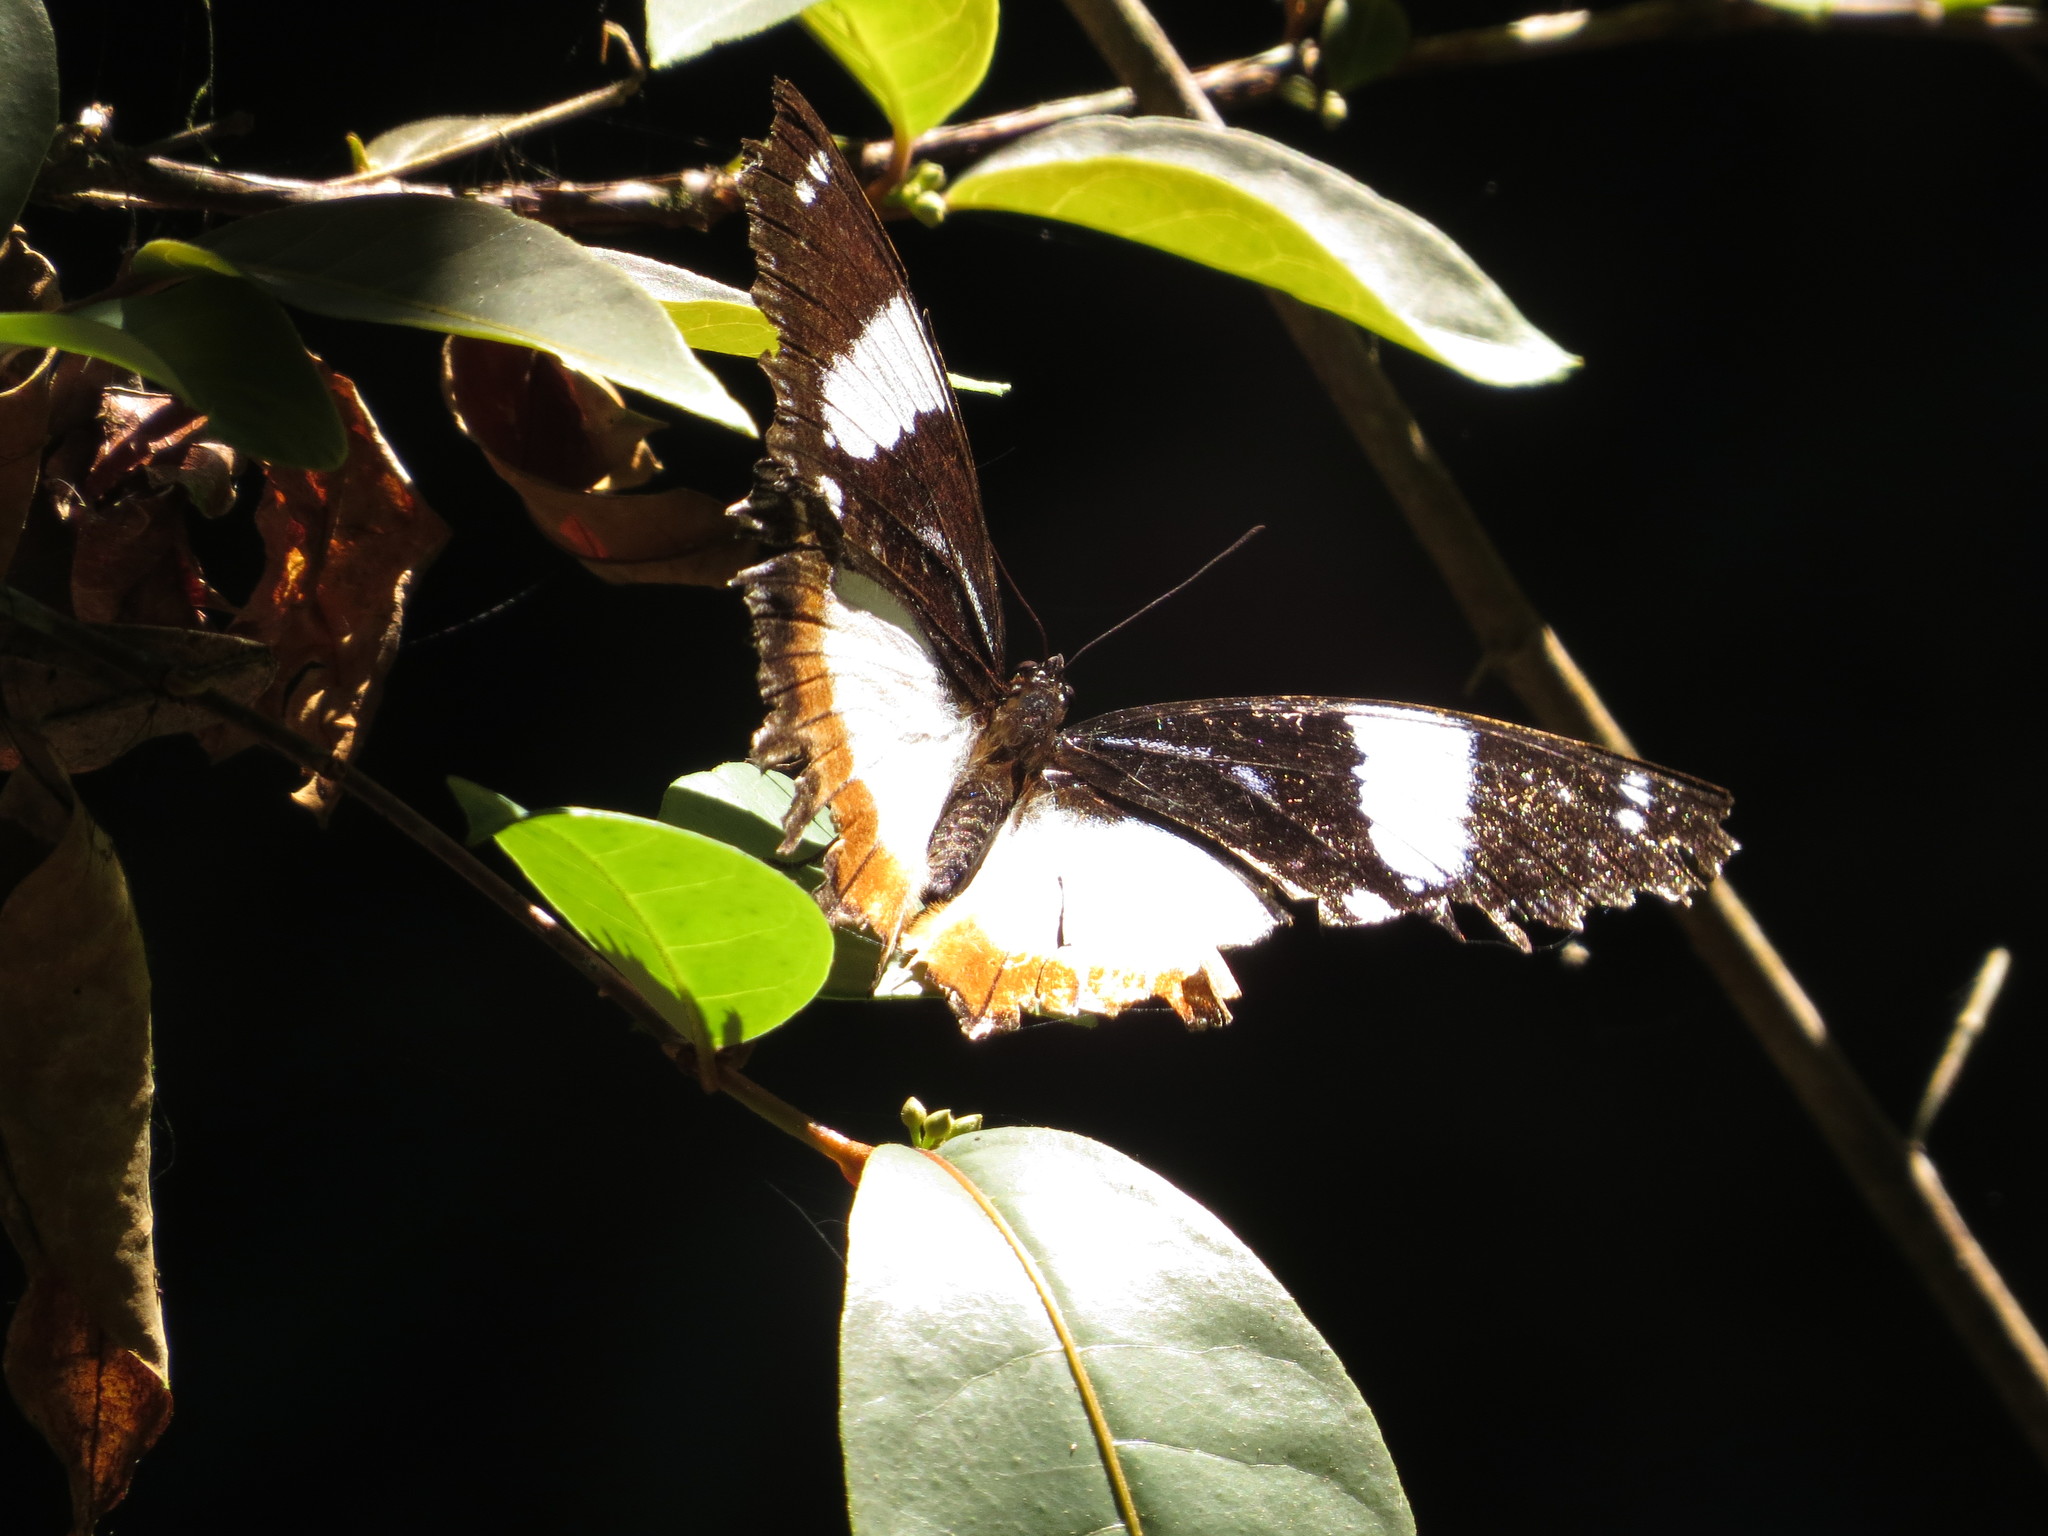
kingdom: Animalia
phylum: Arthropoda
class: Insecta
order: Lepidoptera
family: Nymphalidae
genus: Hypolimnas
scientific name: Hypolimnas dexithea
